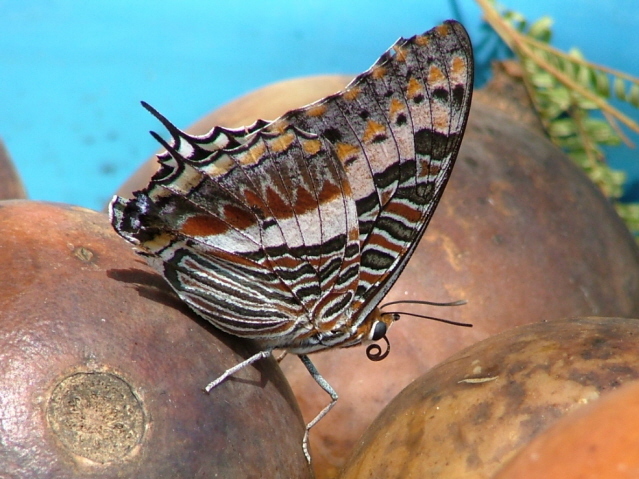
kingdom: Animalia
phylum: Arthropoda
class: Insecta
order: Lepidoptera
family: Nymphalidae
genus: Charaxes
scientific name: Charaxes jasius
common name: Two tailed pasha
